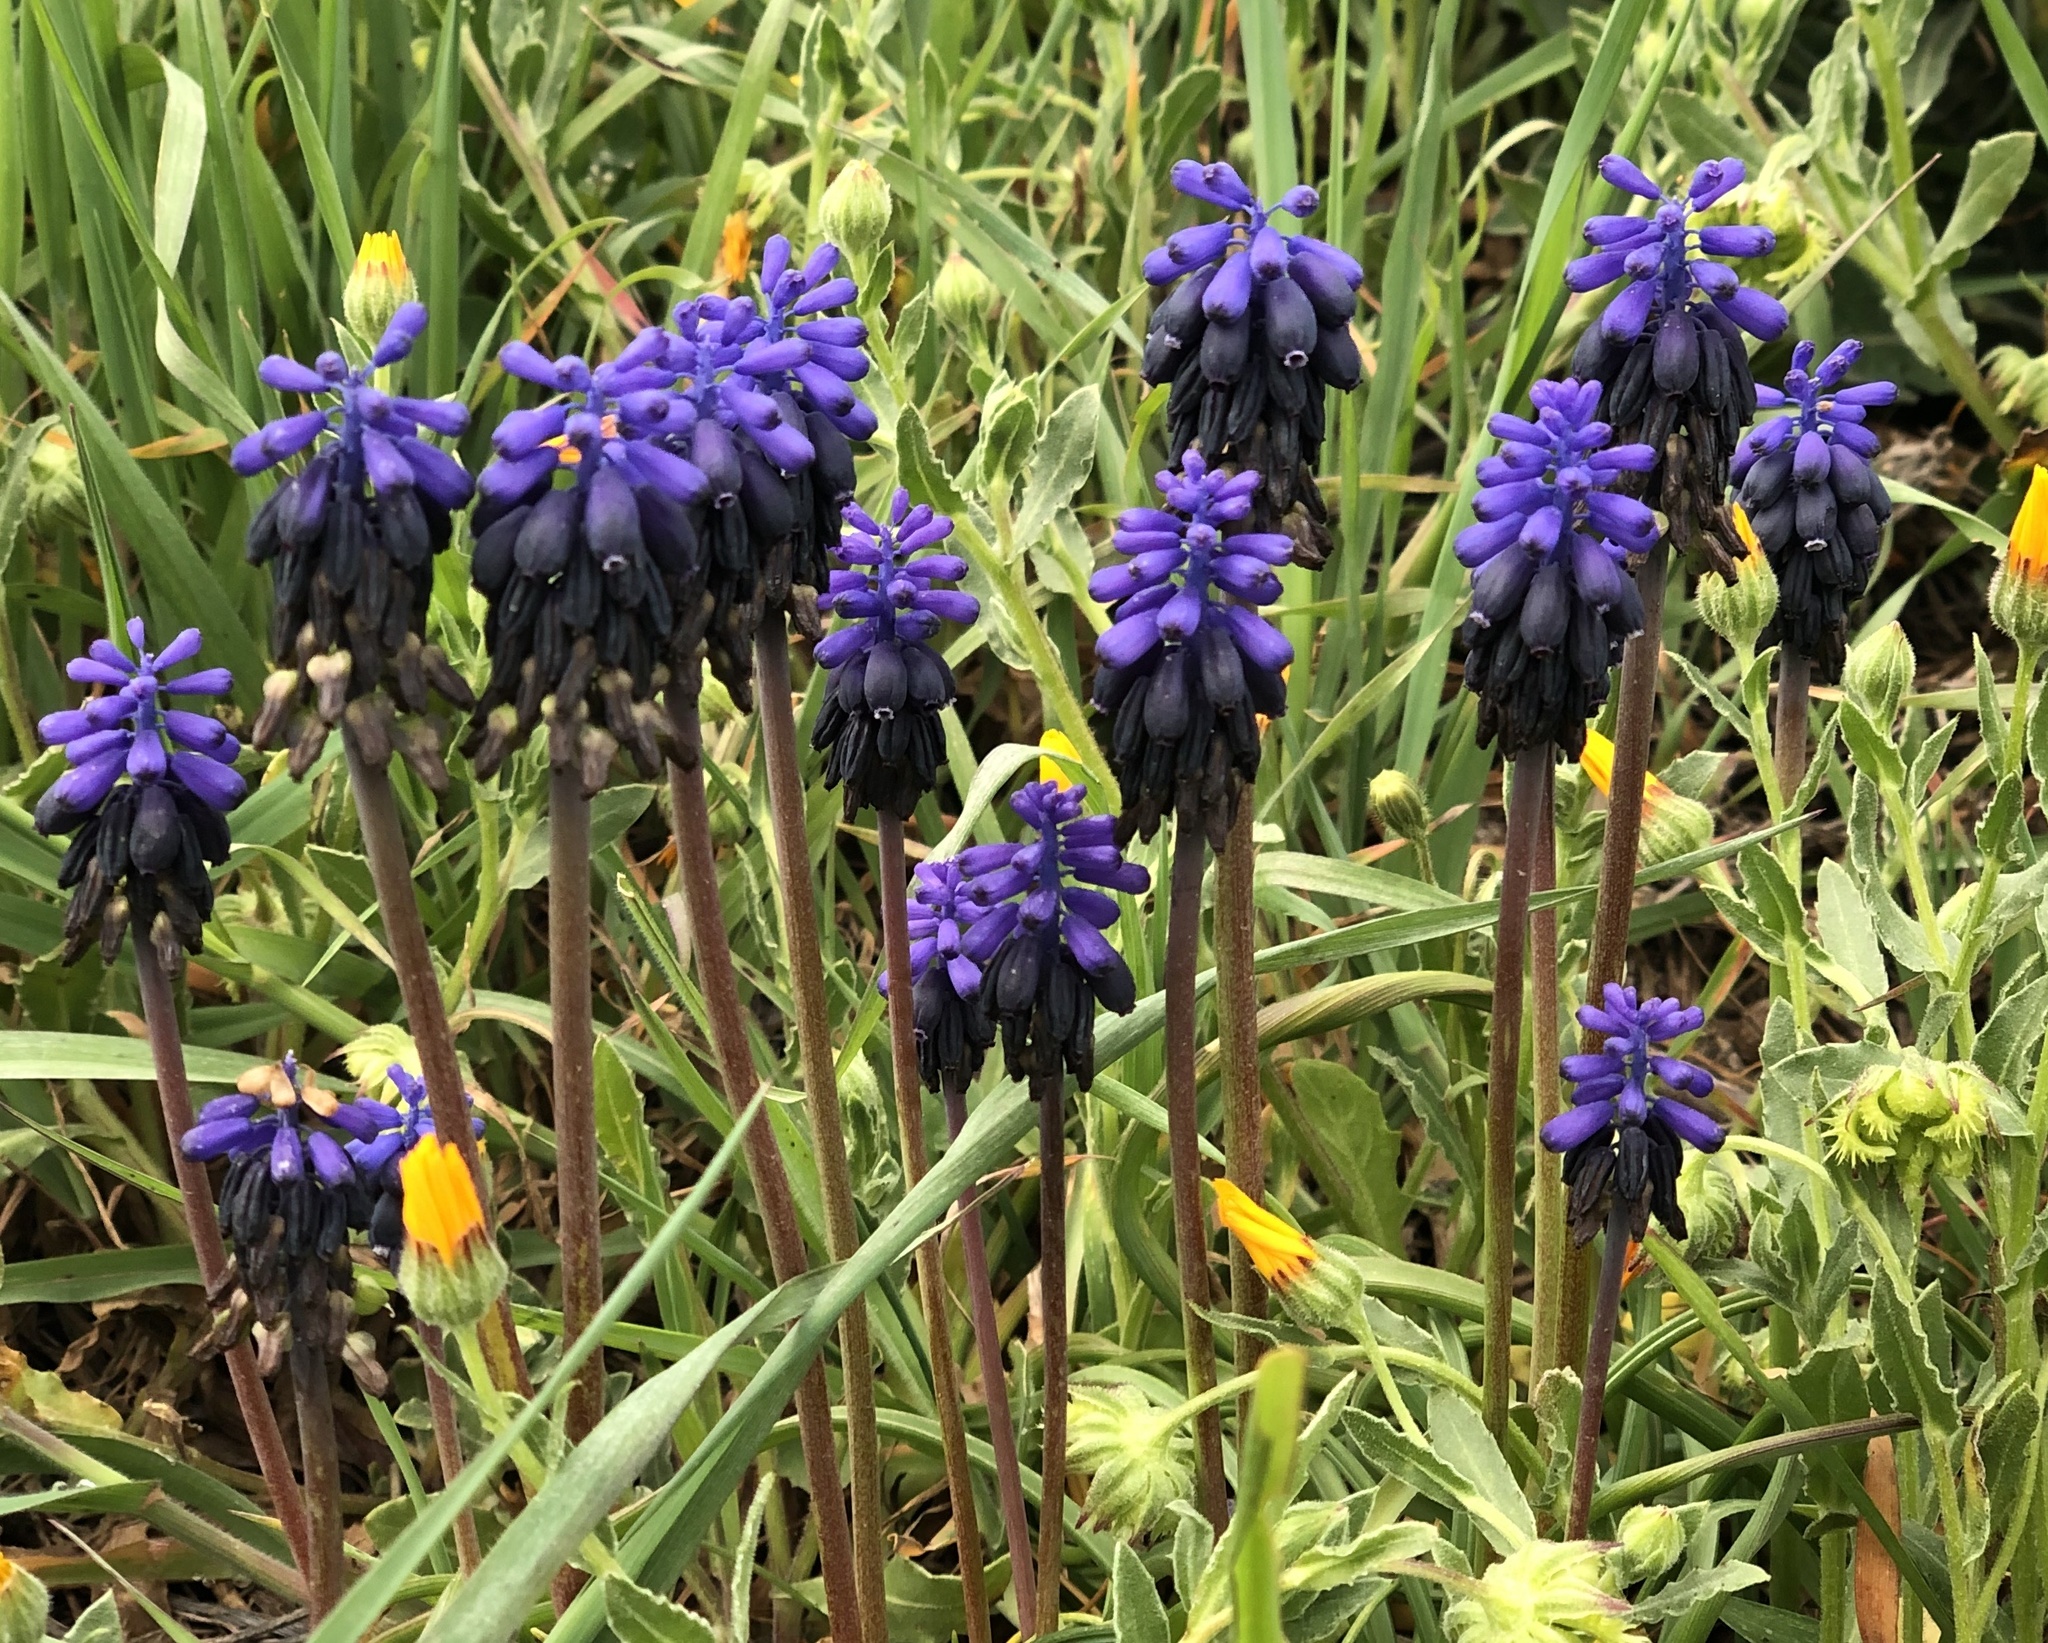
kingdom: Plantae
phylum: Tracheophyta
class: Liliopsida
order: Asparagales
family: Asparagaceae
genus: Muscari
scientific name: Muscari neglectum
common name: Grape-hyacinth
